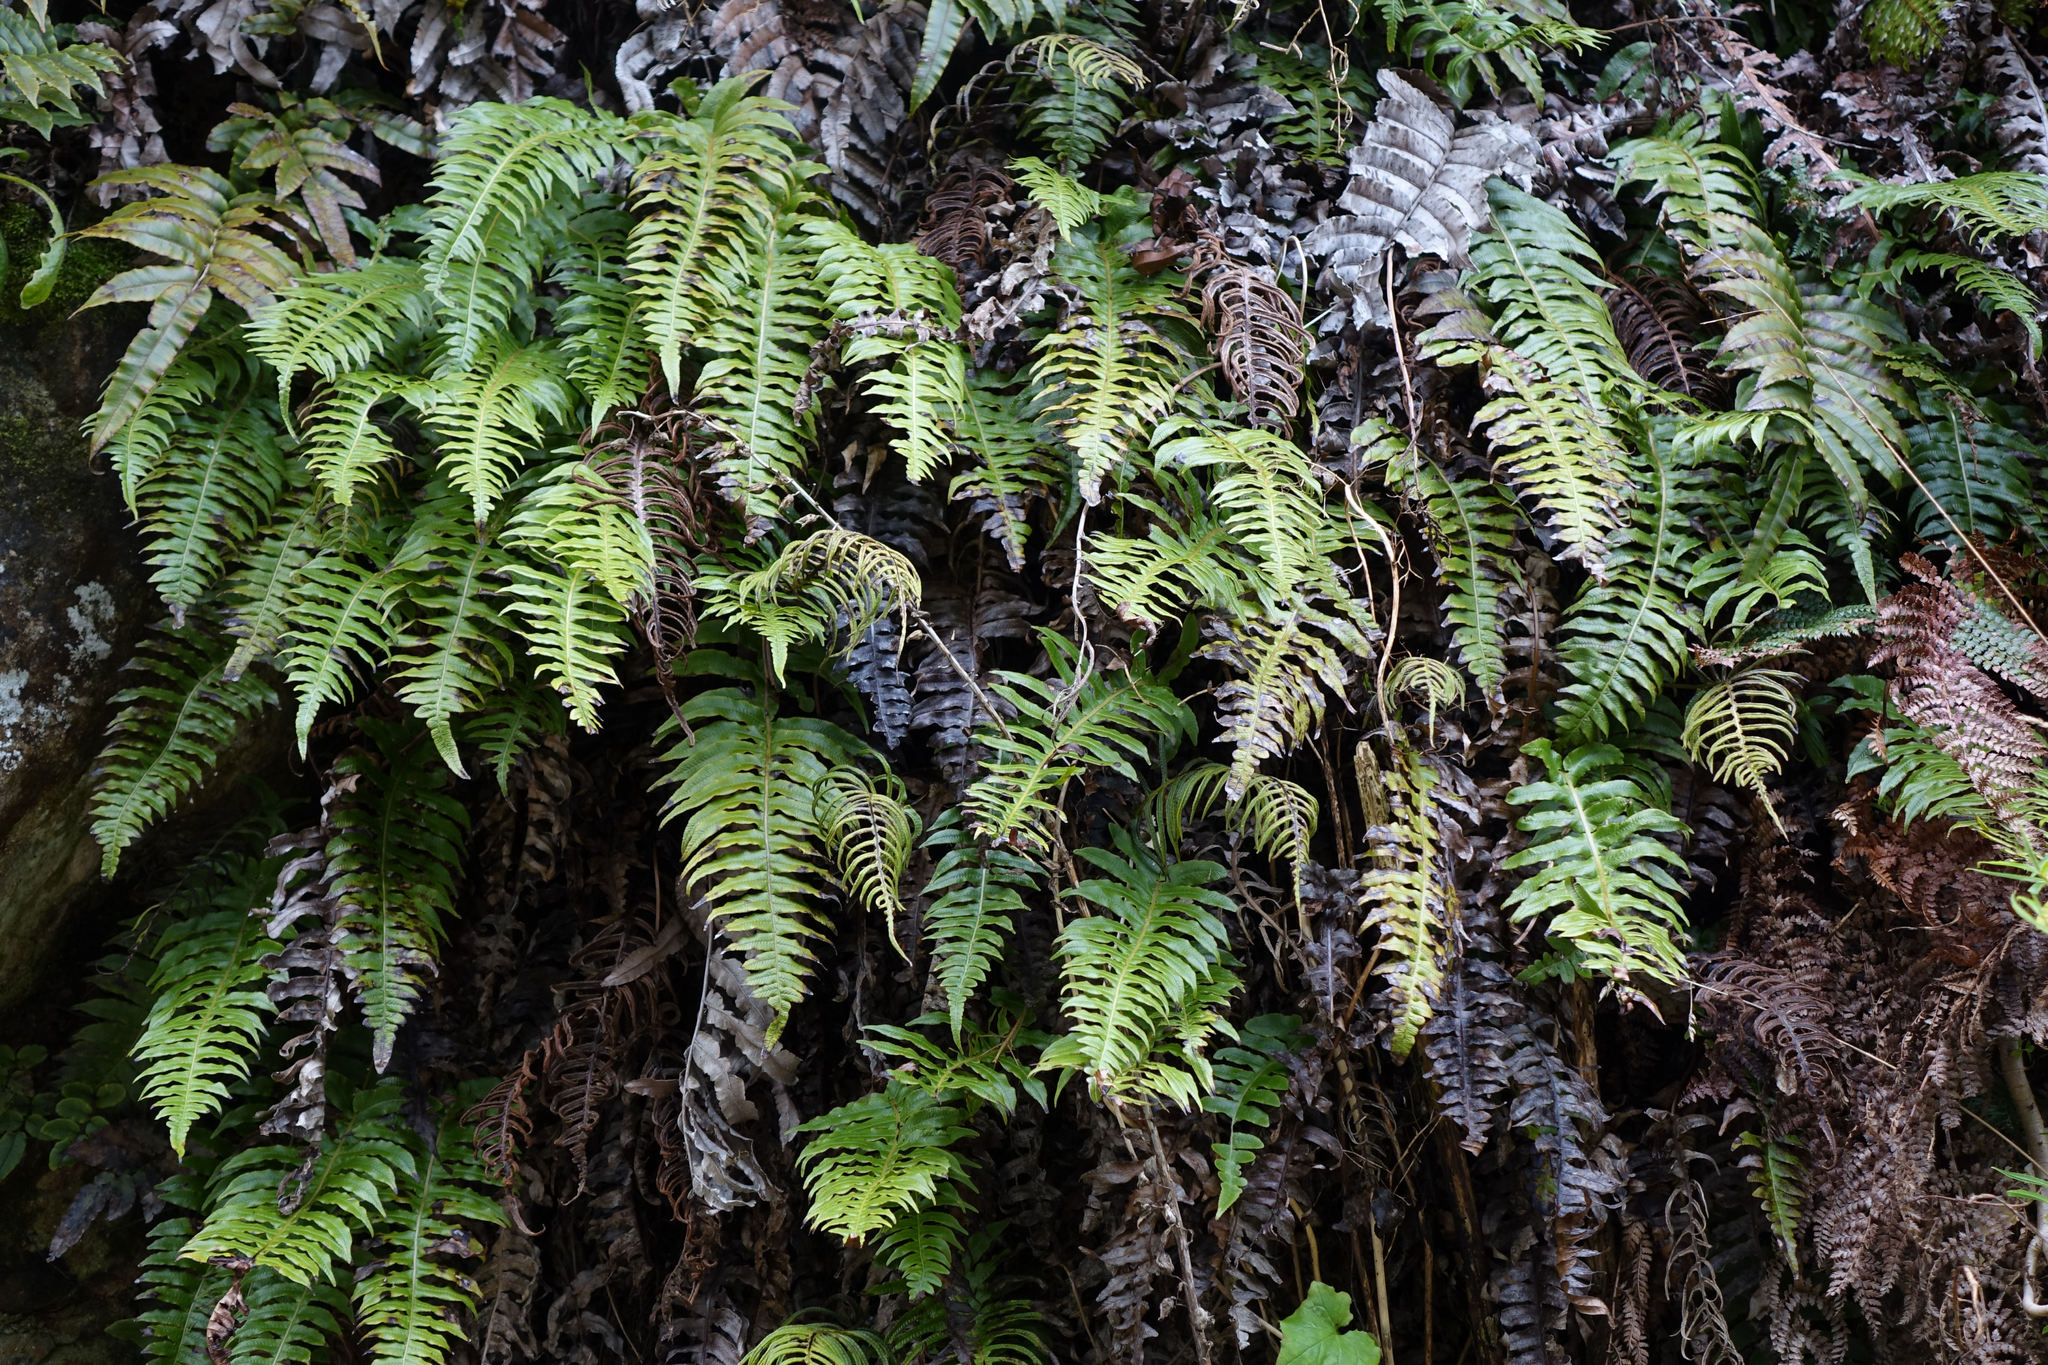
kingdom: Plantae
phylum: Tracheophyta
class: Polypodiopsida
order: Polypodiales
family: Blechnaceae
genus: Cranfillia
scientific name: Cranfillia vulcanica
